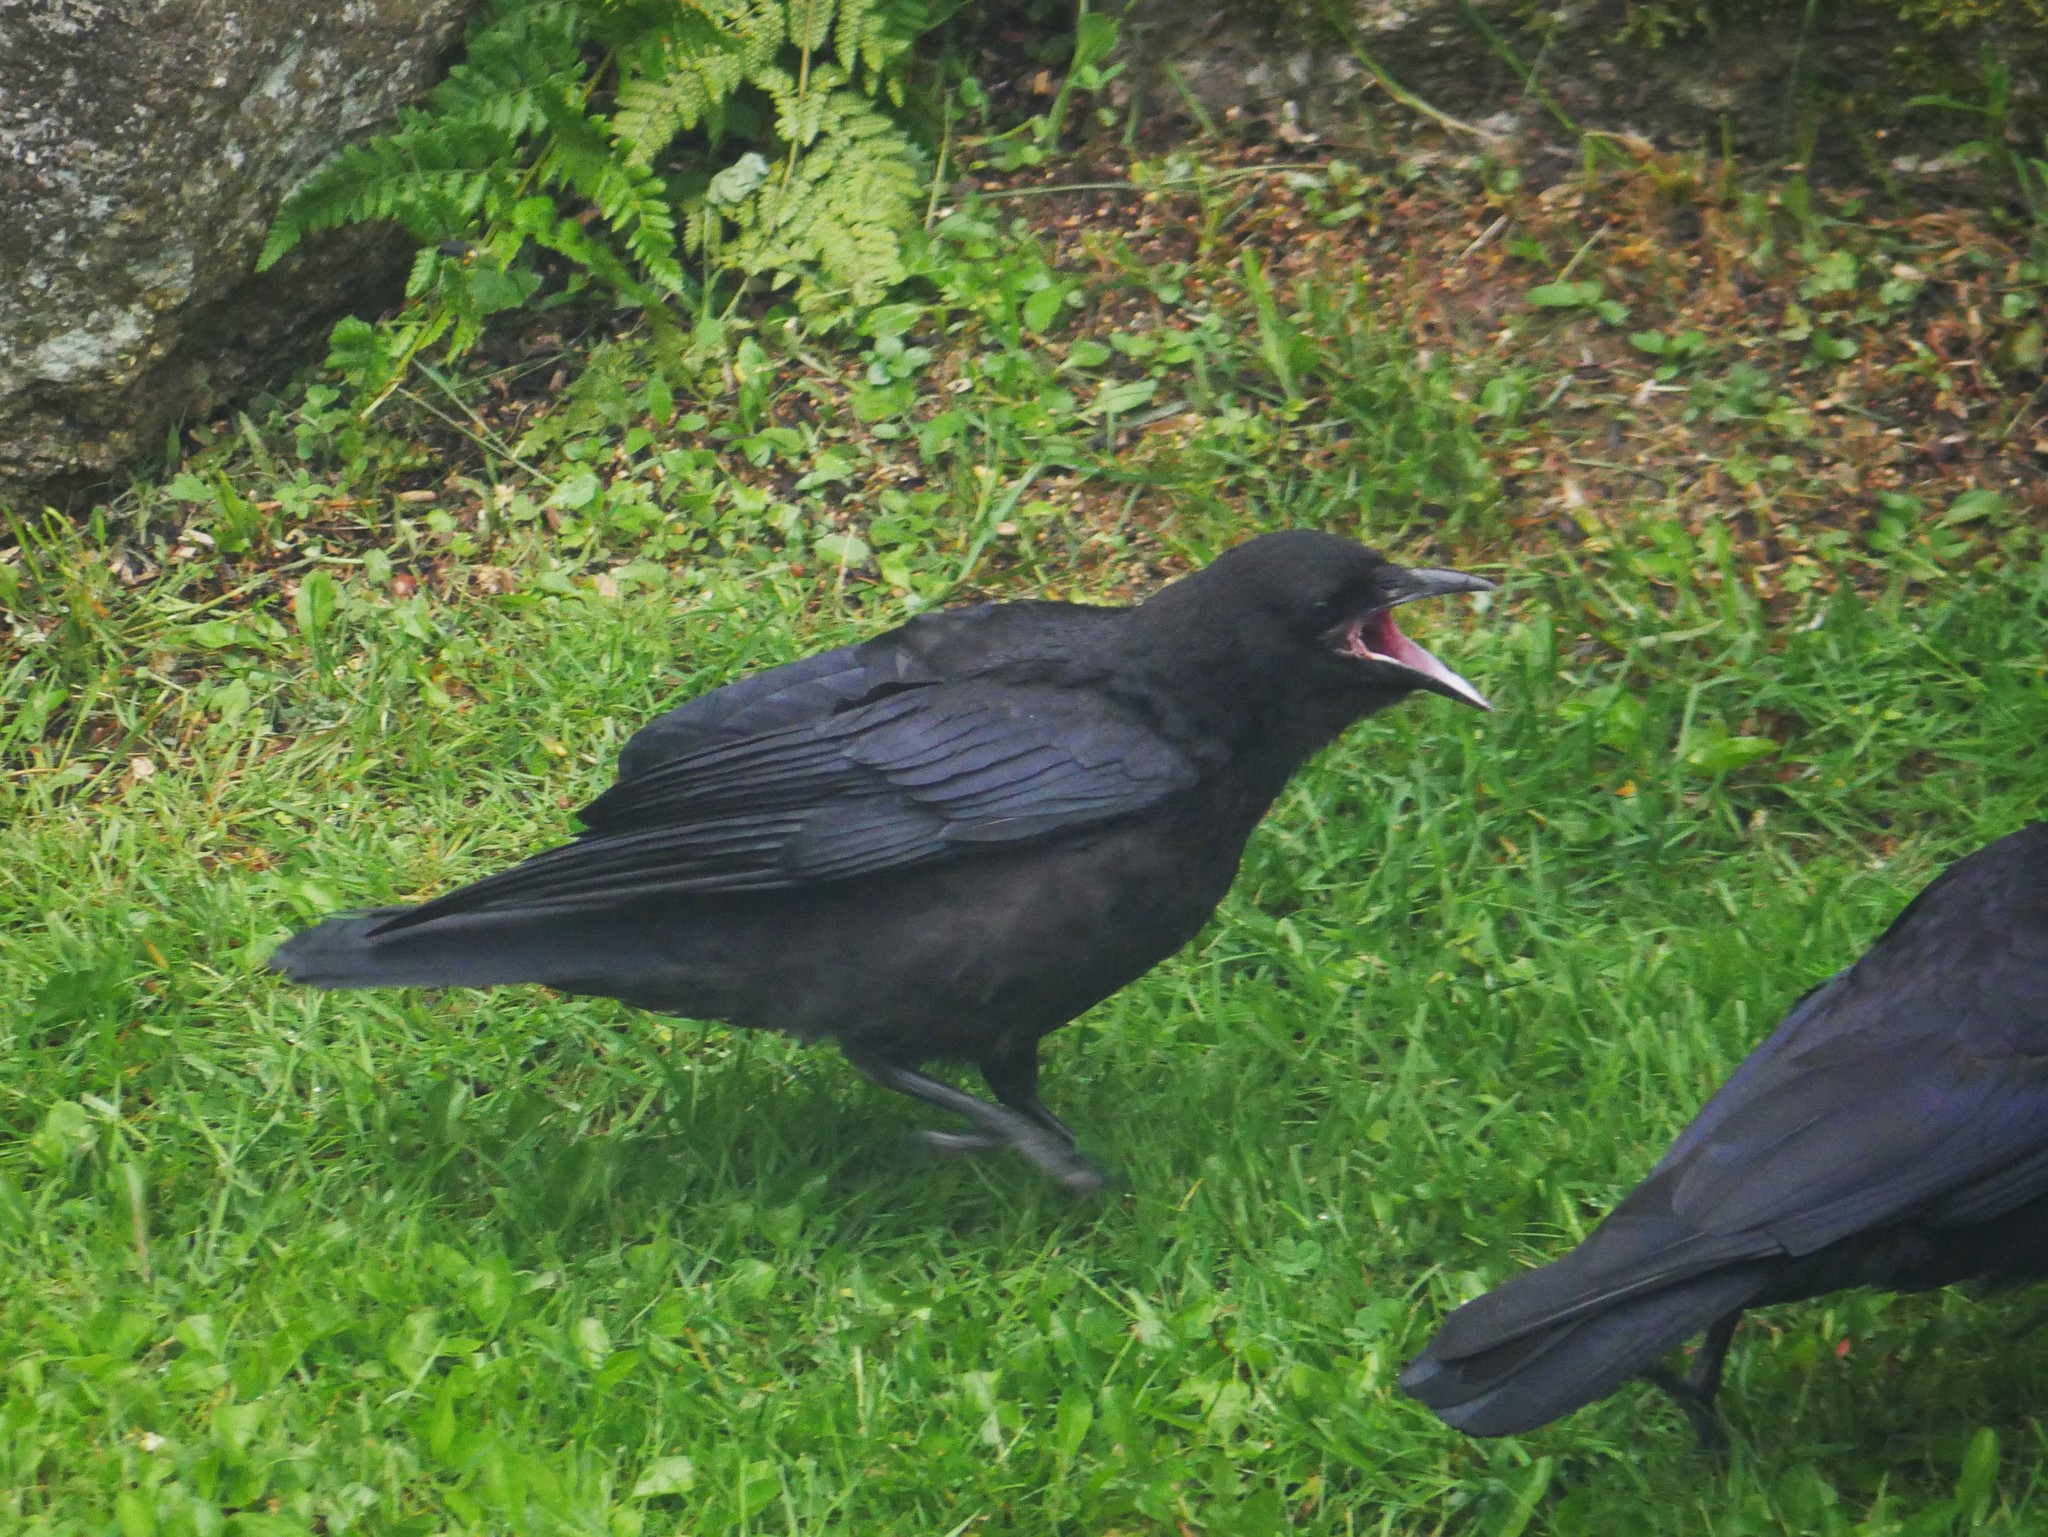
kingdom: Animalia
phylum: Chordata
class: Aves
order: Passeriformes
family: Corvidae
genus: Corvus
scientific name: Corvus brachyrhynchos
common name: American crow
